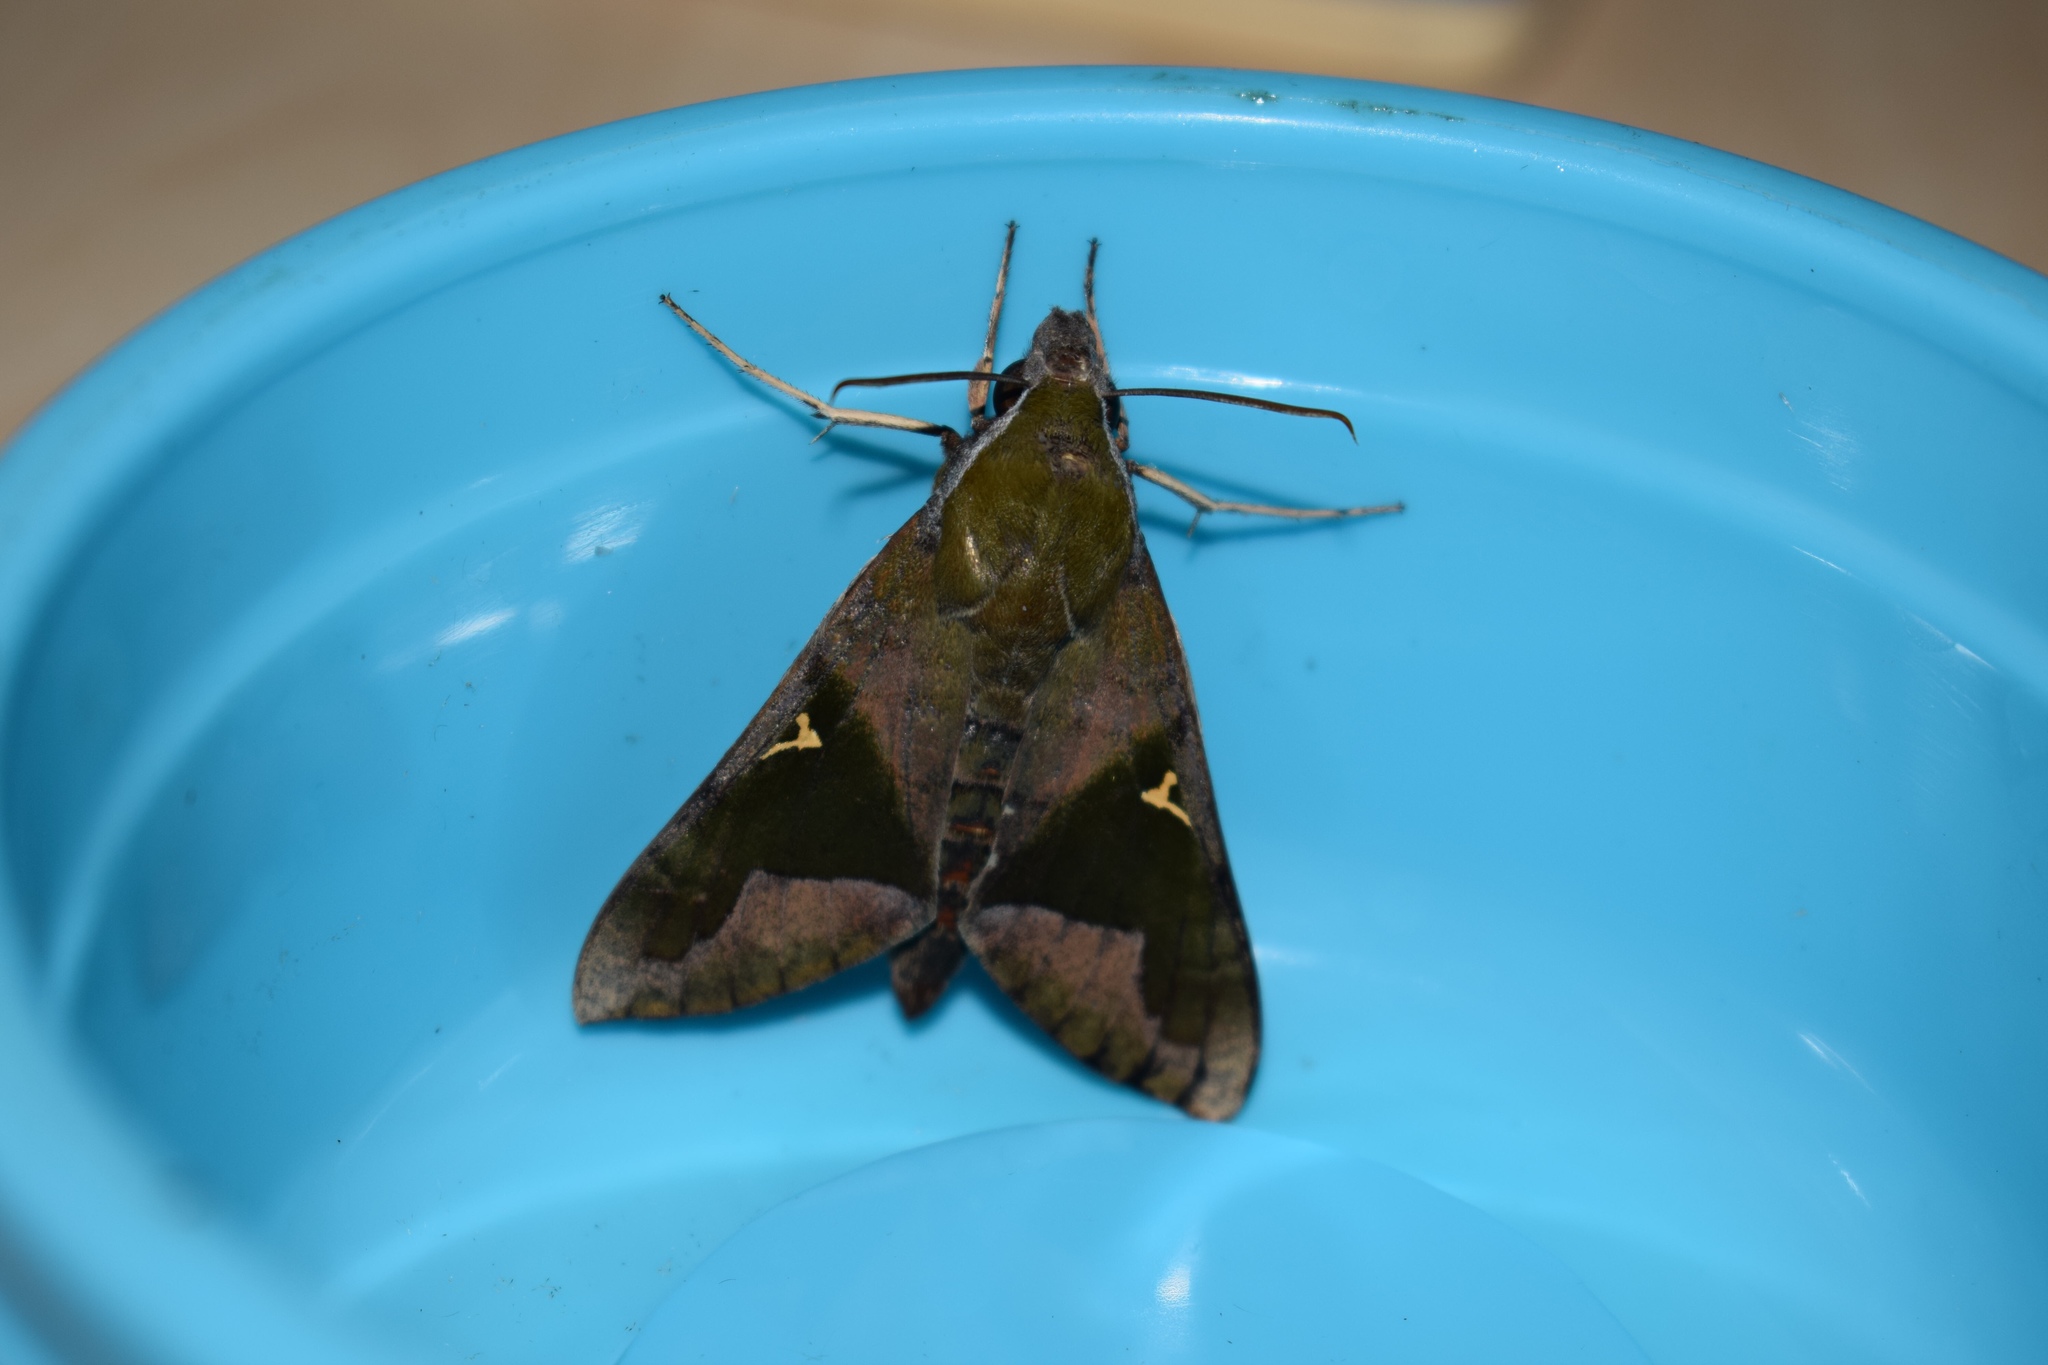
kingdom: Animalia
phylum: Arthropoda
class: Insecta
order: Lepidoptera
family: Sphingidae
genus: Nephele
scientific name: Nephele vau
